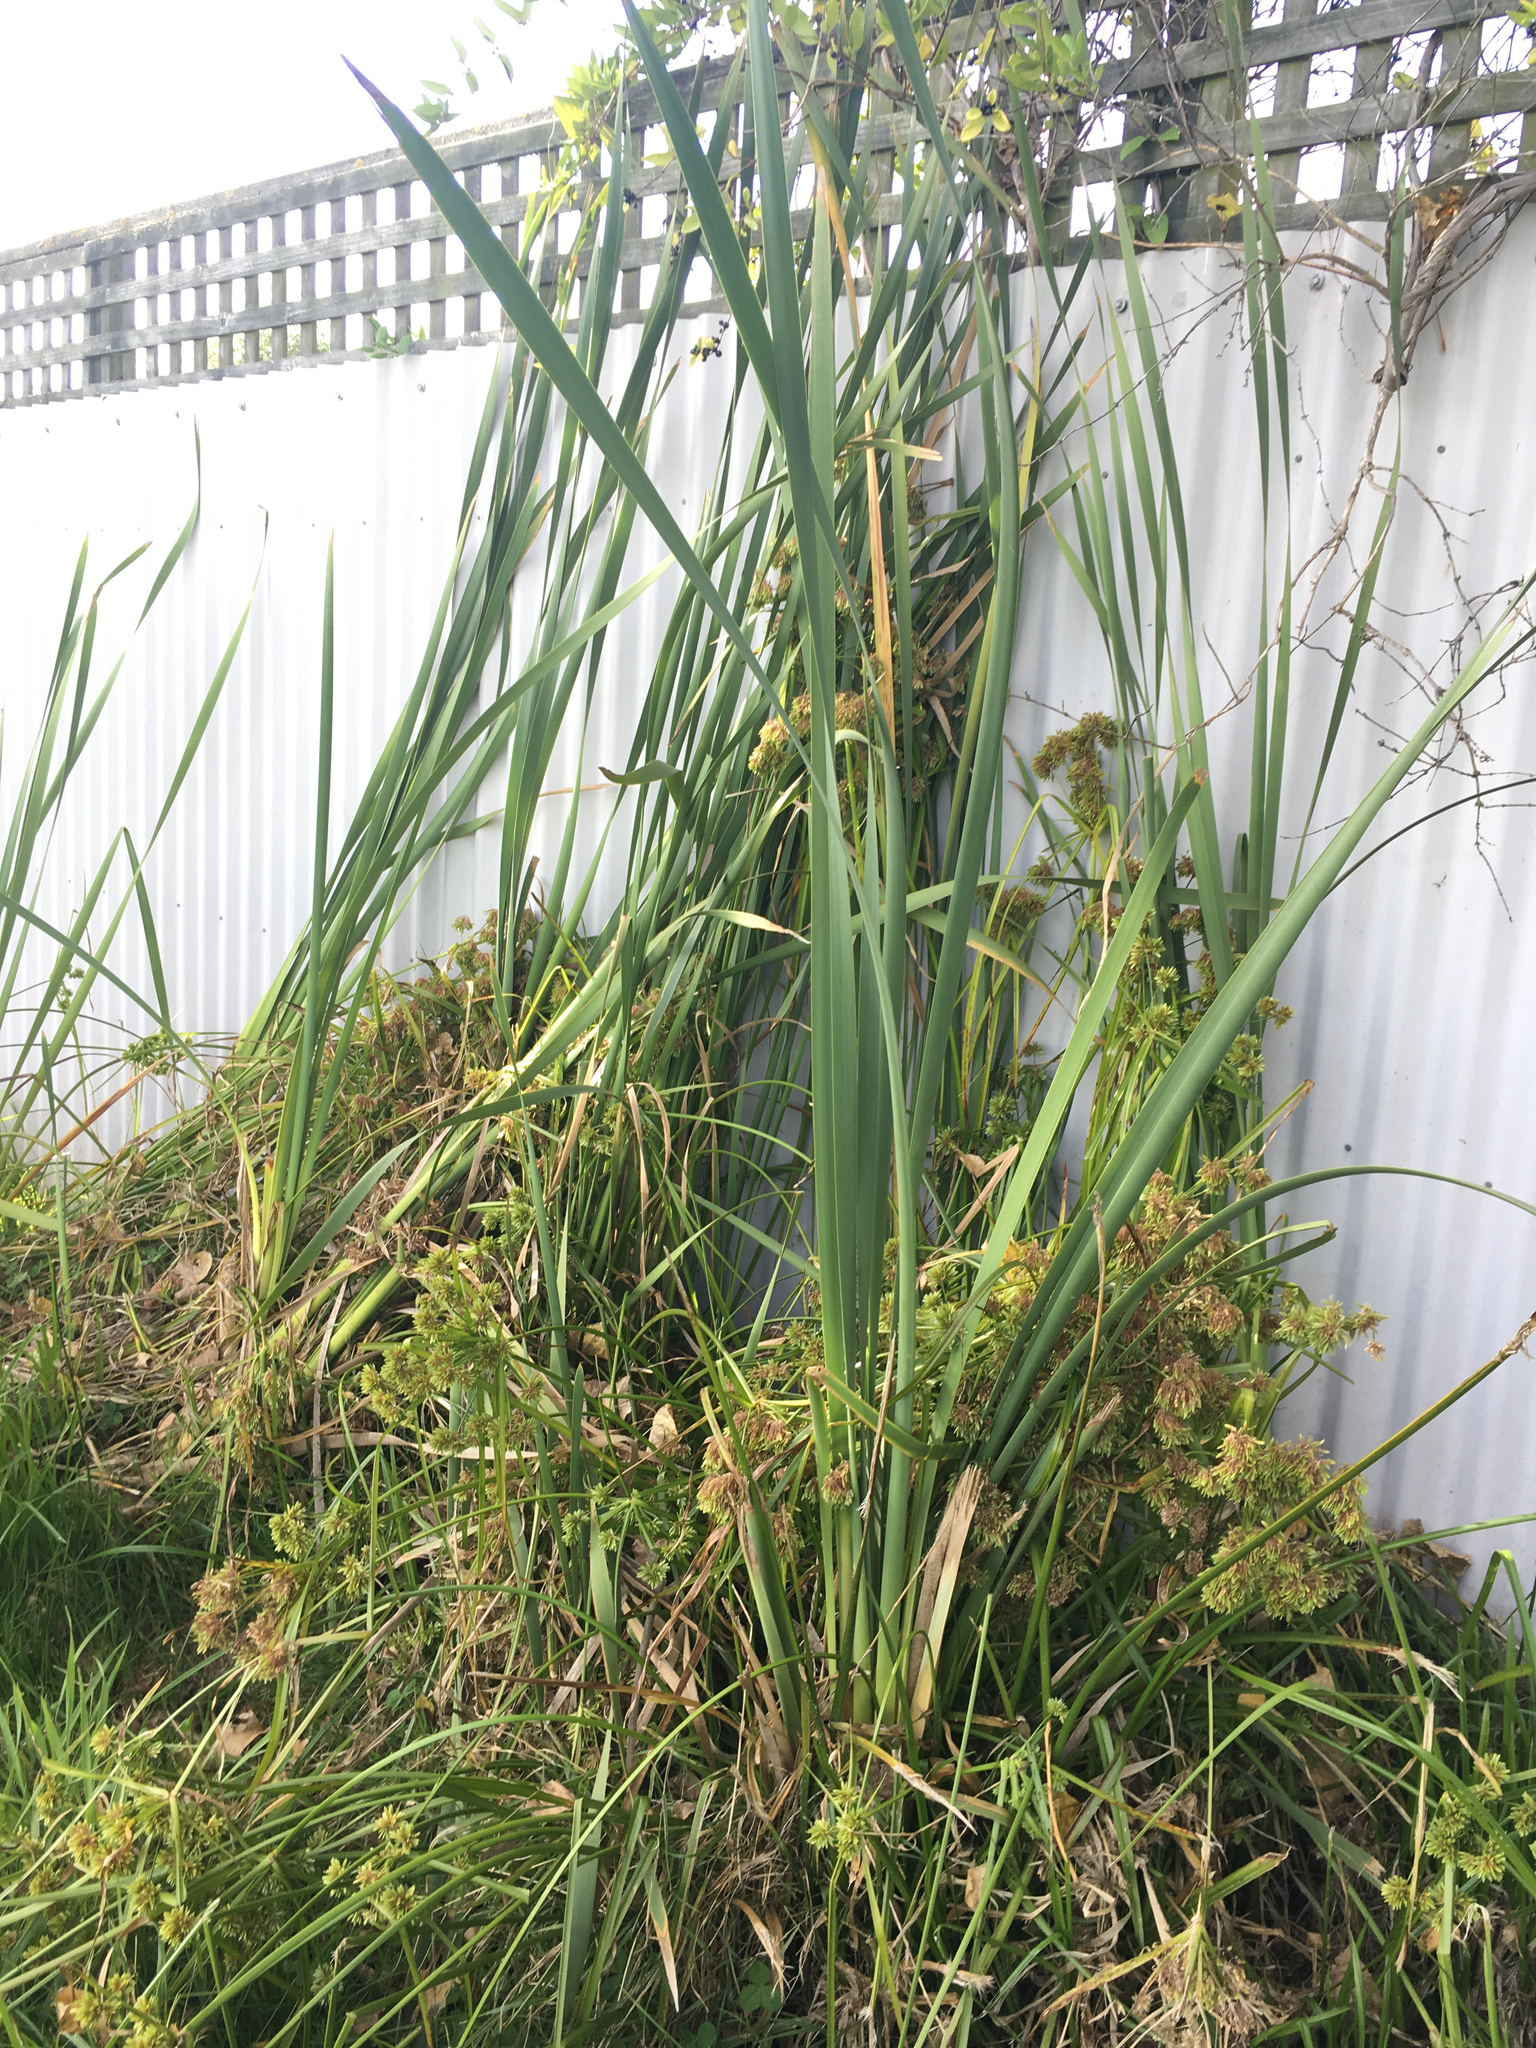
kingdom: Plantae
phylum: Tracheophyta
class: Liliopsida
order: Poales
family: Typhaceae
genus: Typha
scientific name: Typha orientalis
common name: Bullrush
